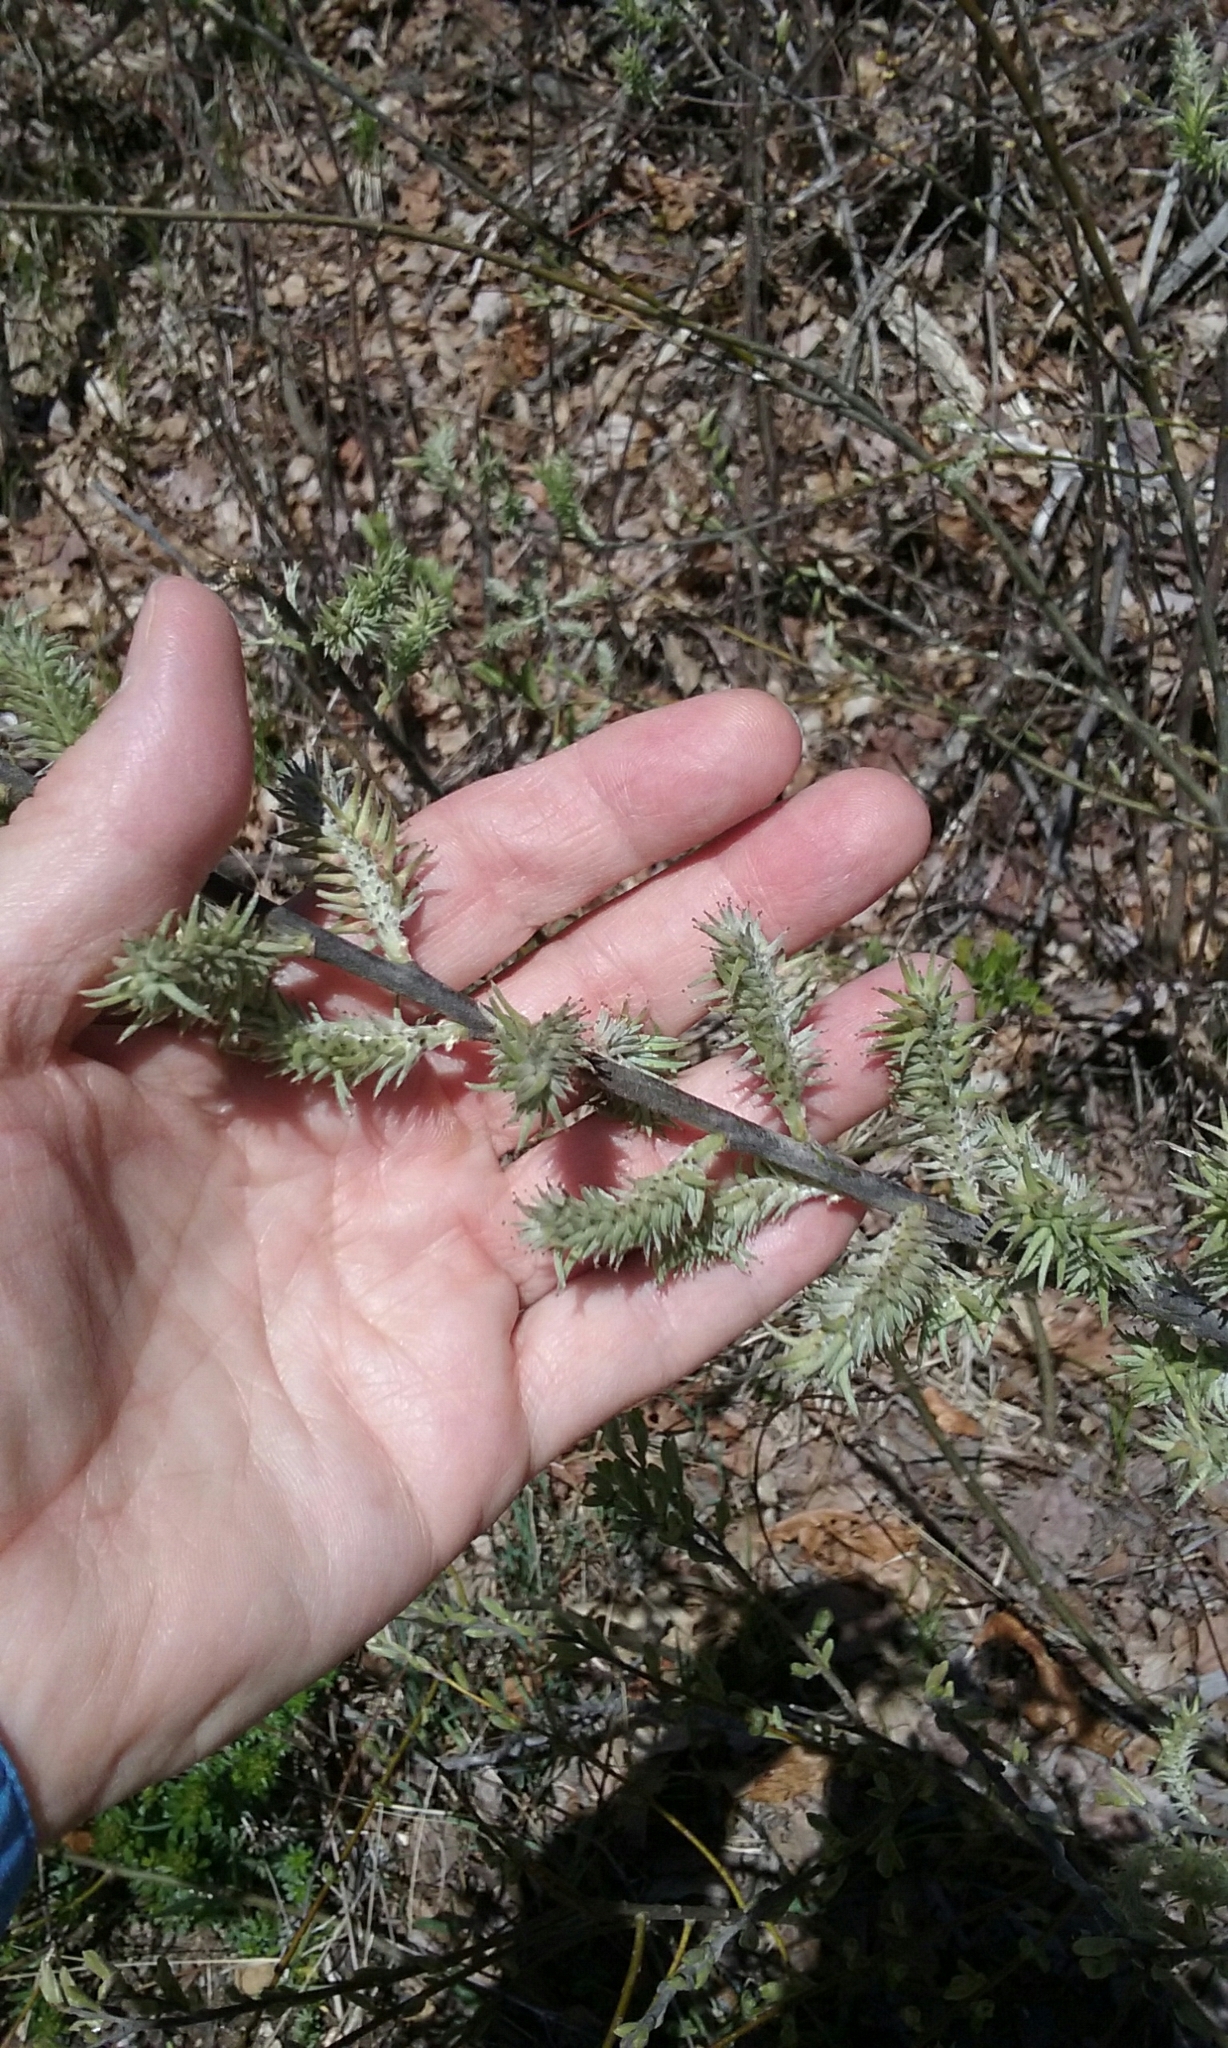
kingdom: Plantae
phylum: Tracheophyta
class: Magnoliopsida
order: Malpighiales
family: Salicaceae
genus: Salix
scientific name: Salix
